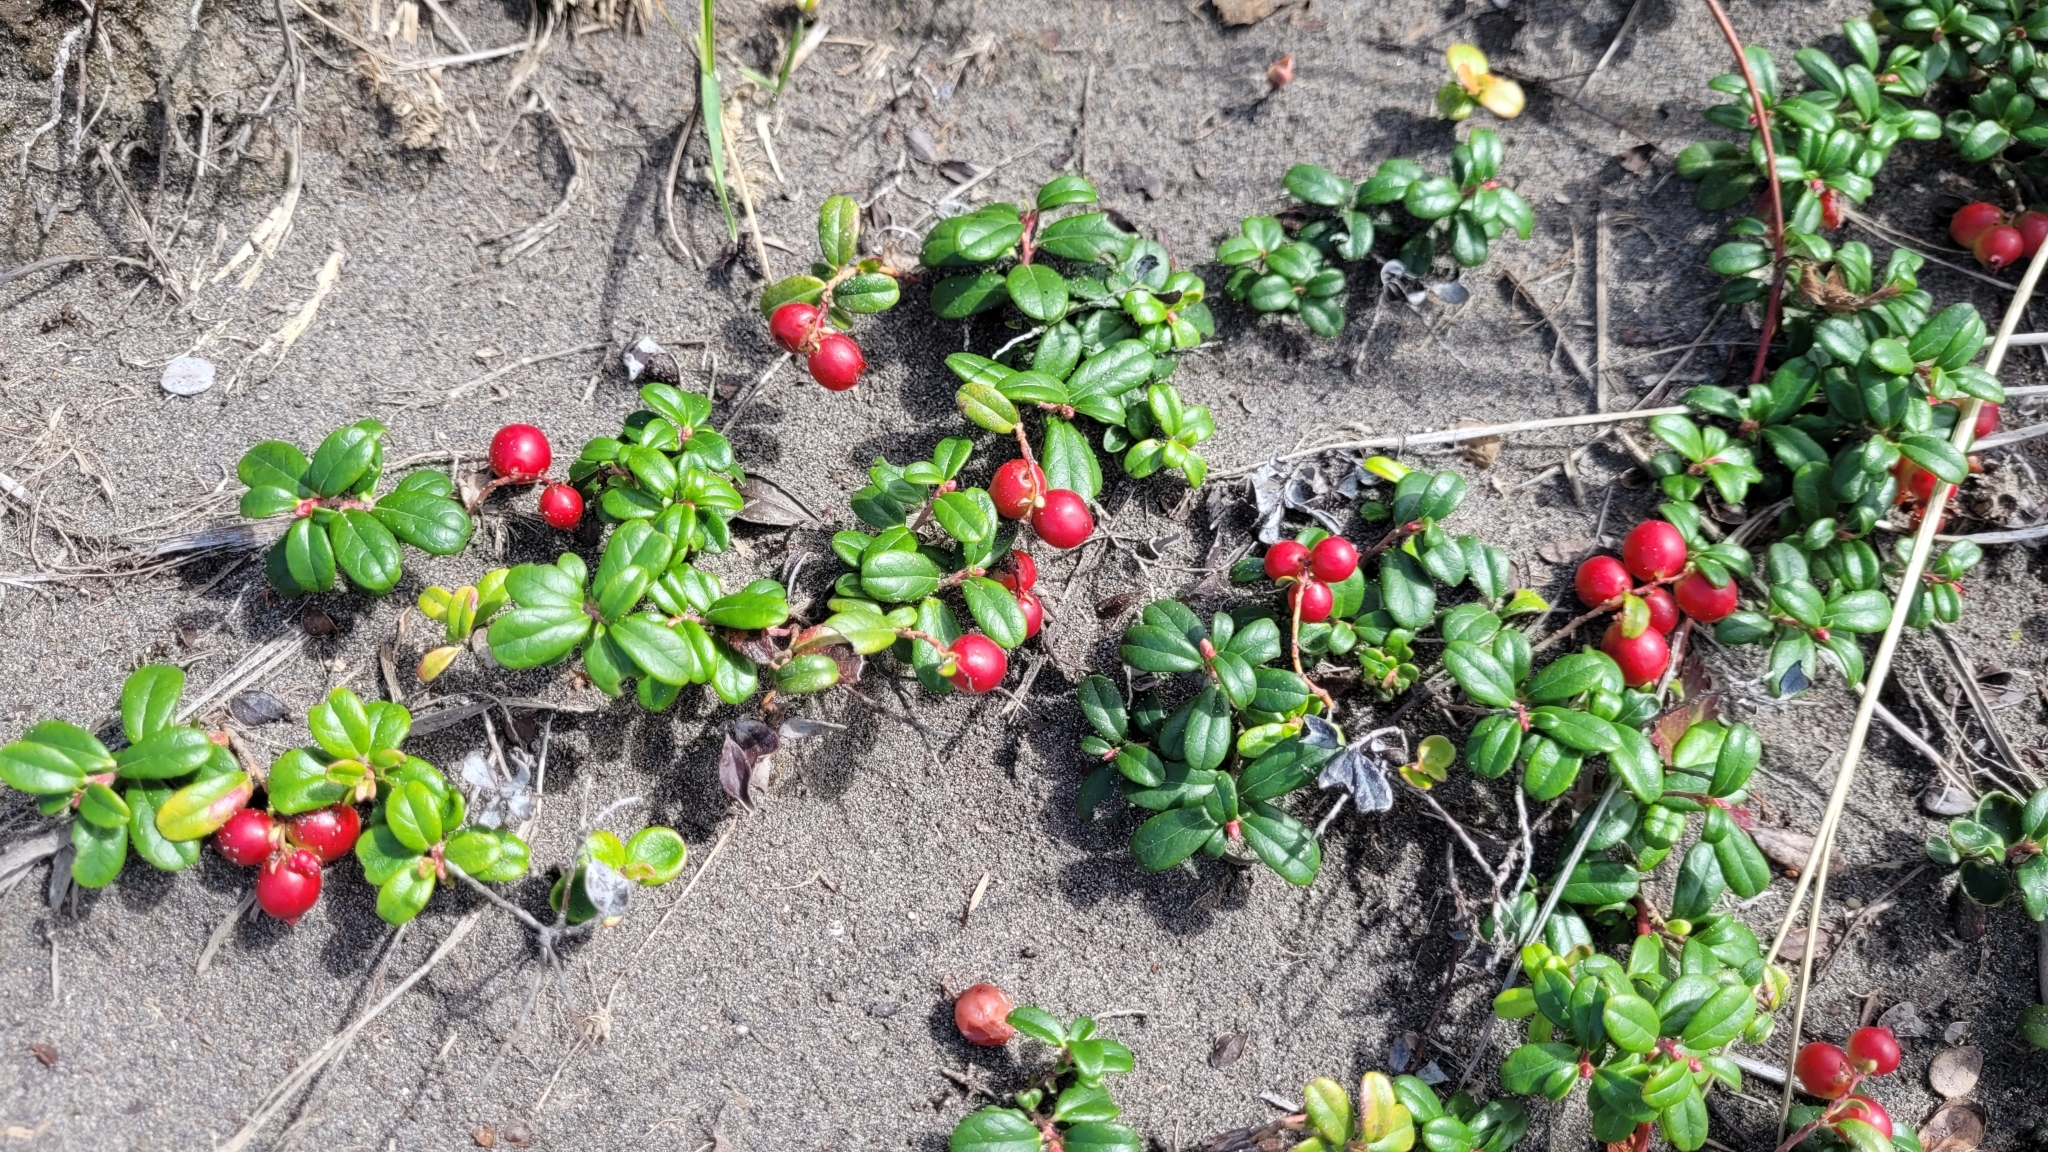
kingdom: Plantae
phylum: Tracheophyta
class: Magnoliopsida
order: Ericales
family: Ericaceae
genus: Vaccinium
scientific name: Vaccinium vitis-idaea
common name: Cowberry
